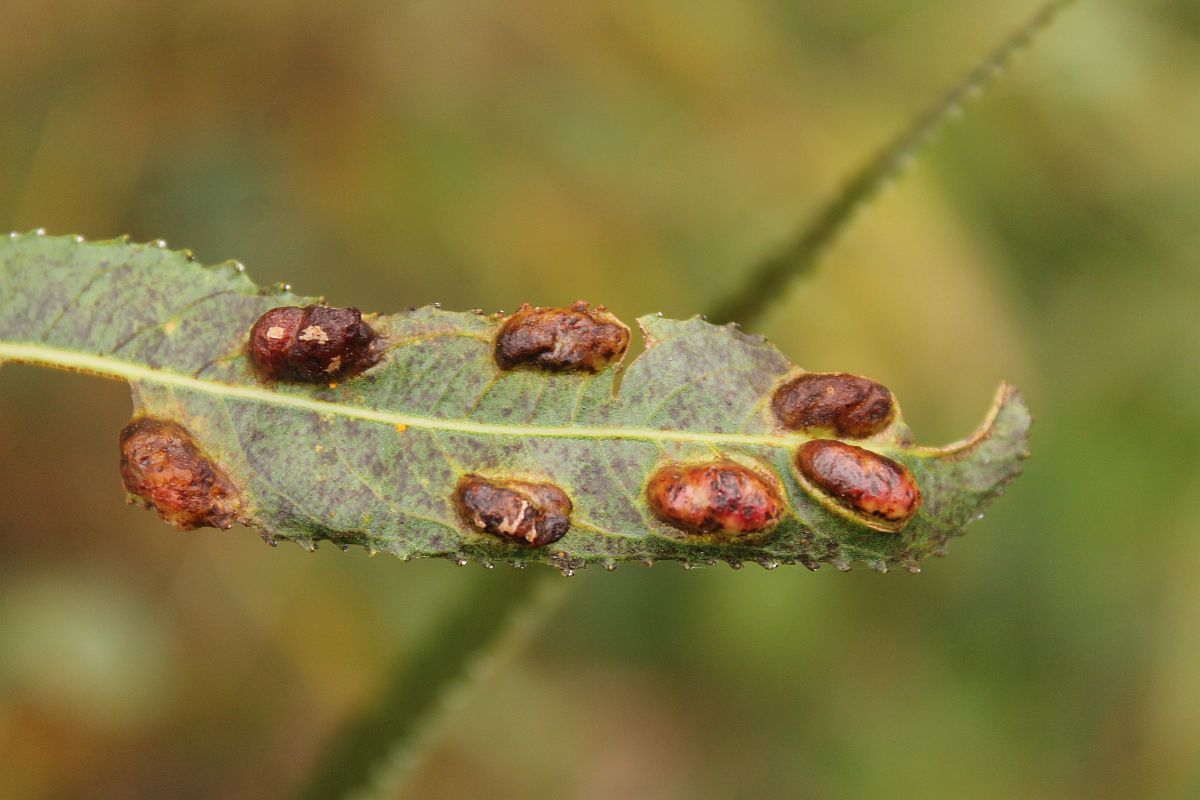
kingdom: Animalia
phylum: Arthropoda
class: Insecta
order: Hymenoptera
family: Tenthredinidae
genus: Pontania
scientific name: Pontania proxima
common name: Common sawfly
